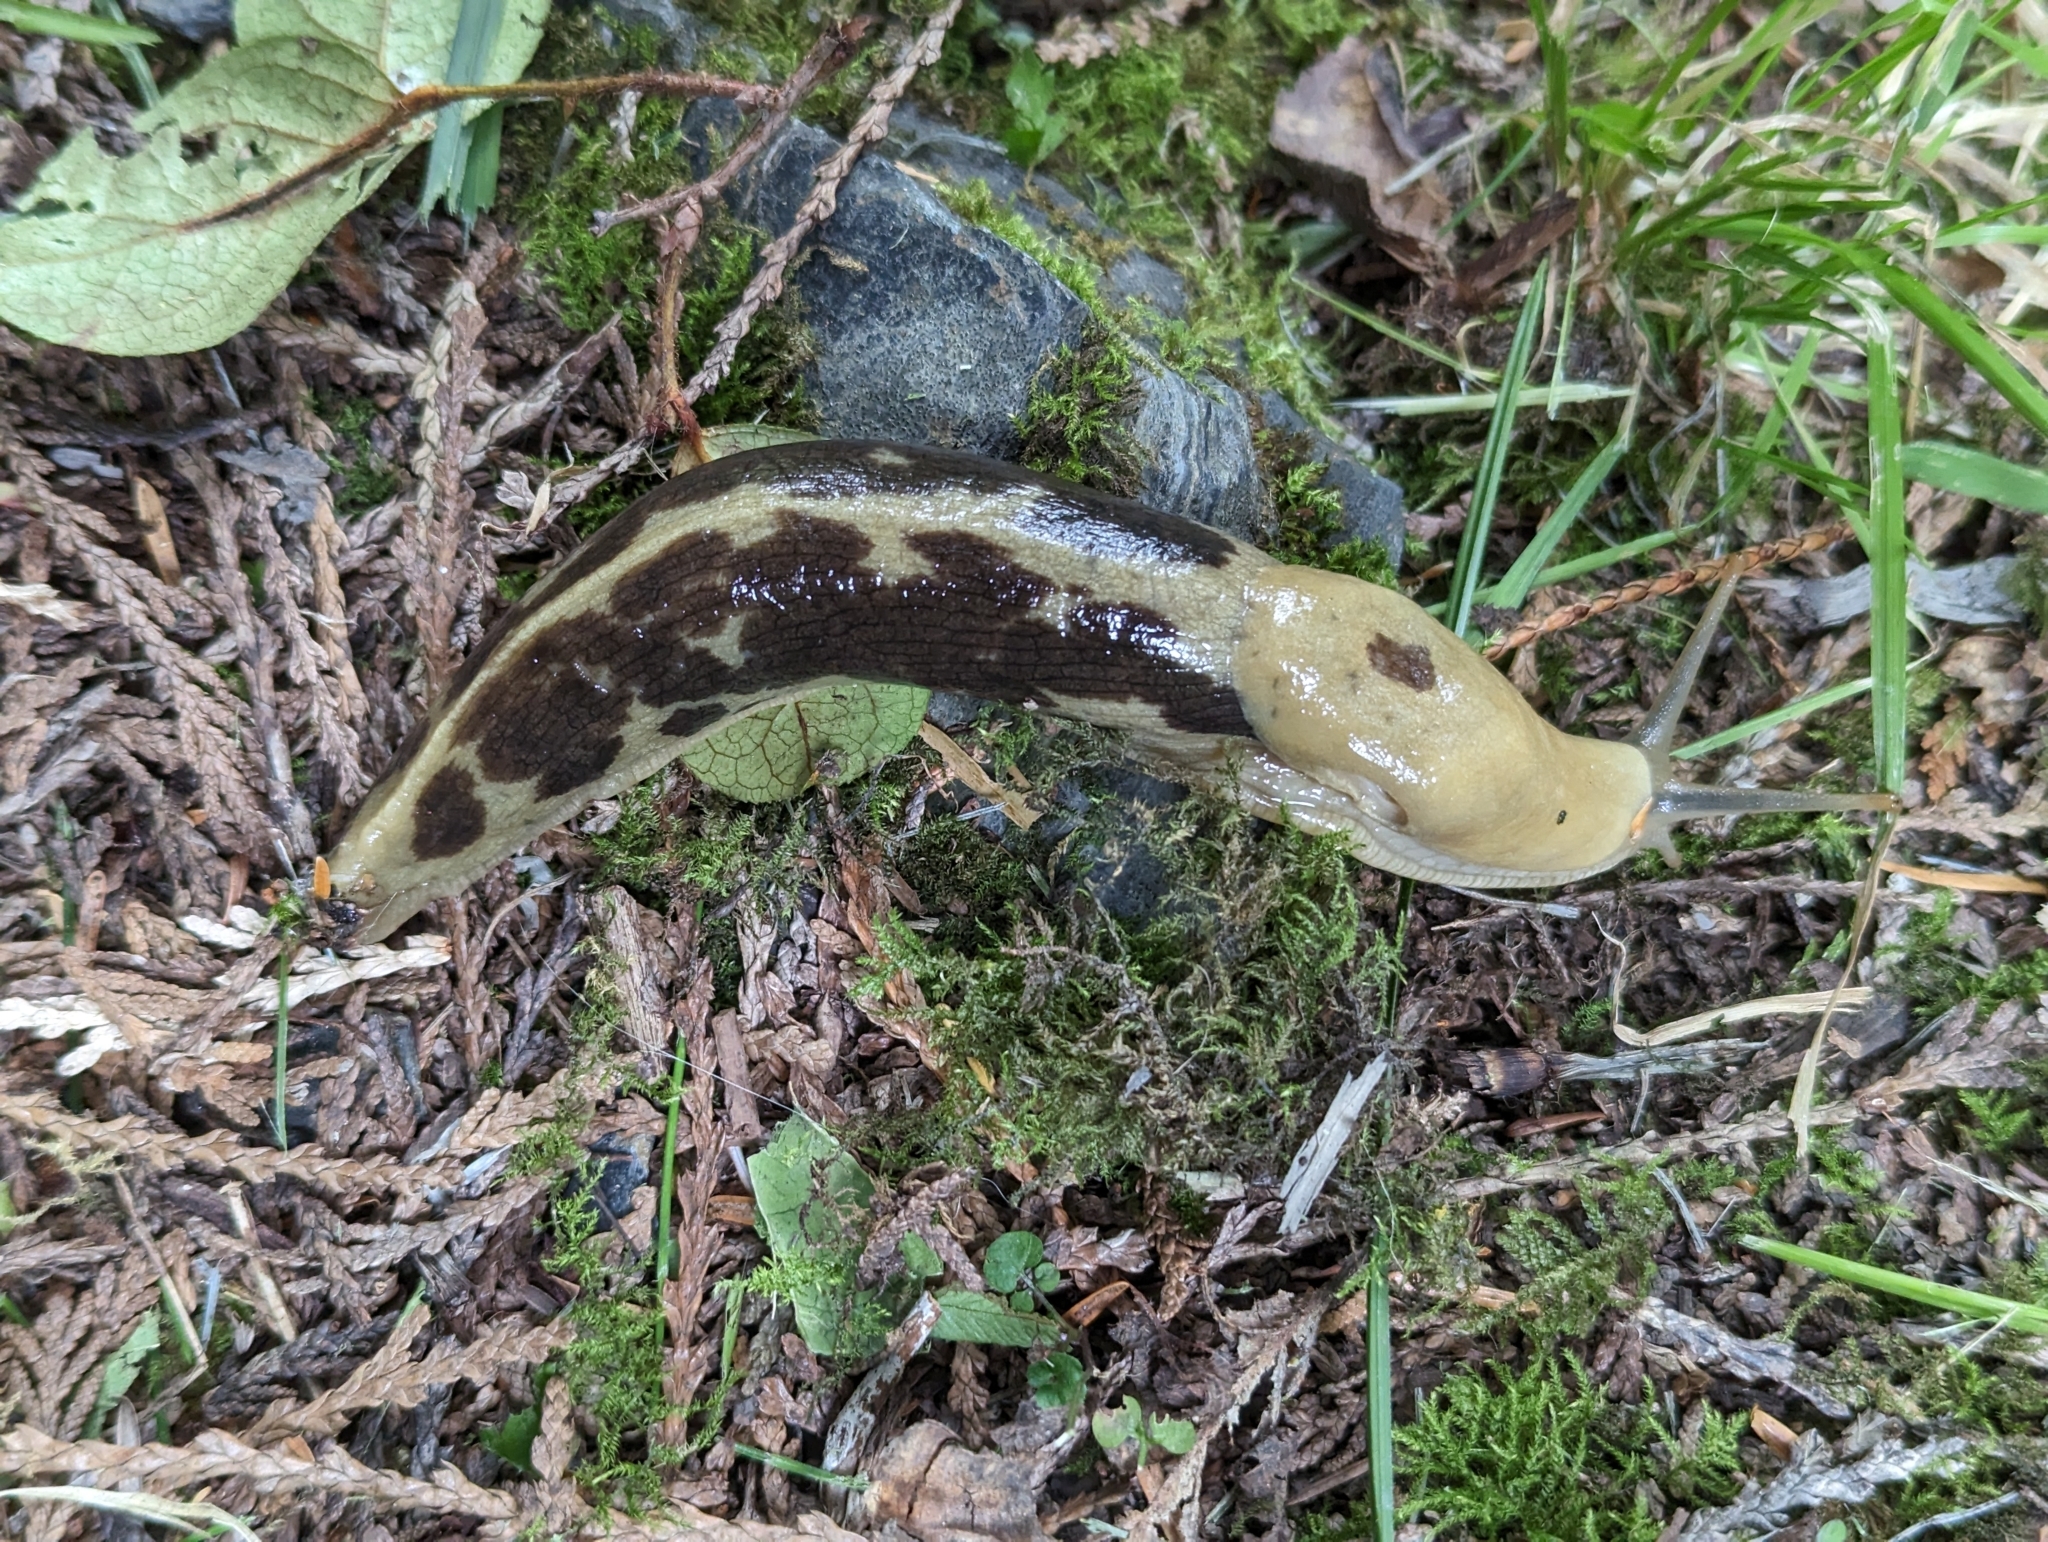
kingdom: Animalia
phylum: Mollusca
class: Gastropoda
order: Stylommatophora
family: Ariolimacidae
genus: Ariolimax
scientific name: Ariolimax columbianus
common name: Pacific banana slug
